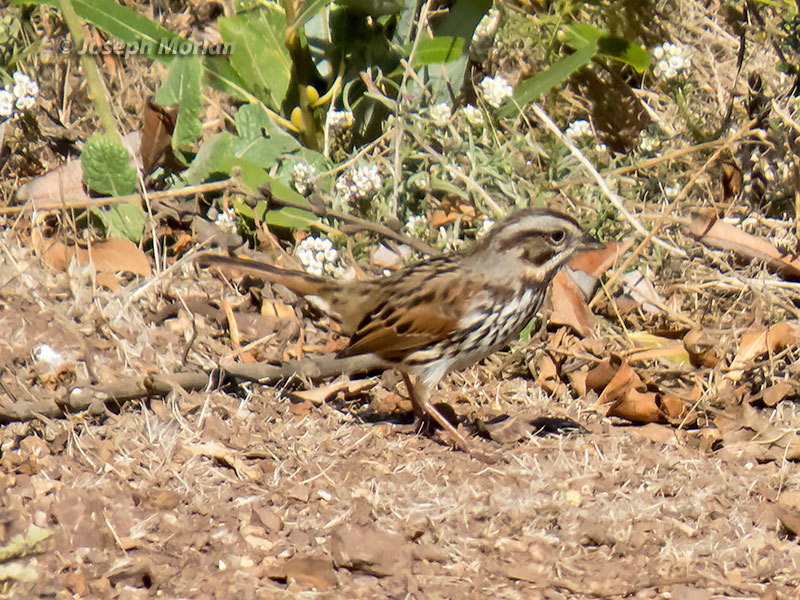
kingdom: Animalia
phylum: Chordata
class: Aves
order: Passeriformes
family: Passerellidae
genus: Melospiza
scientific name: Melospiza melodia
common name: Song sparrow
